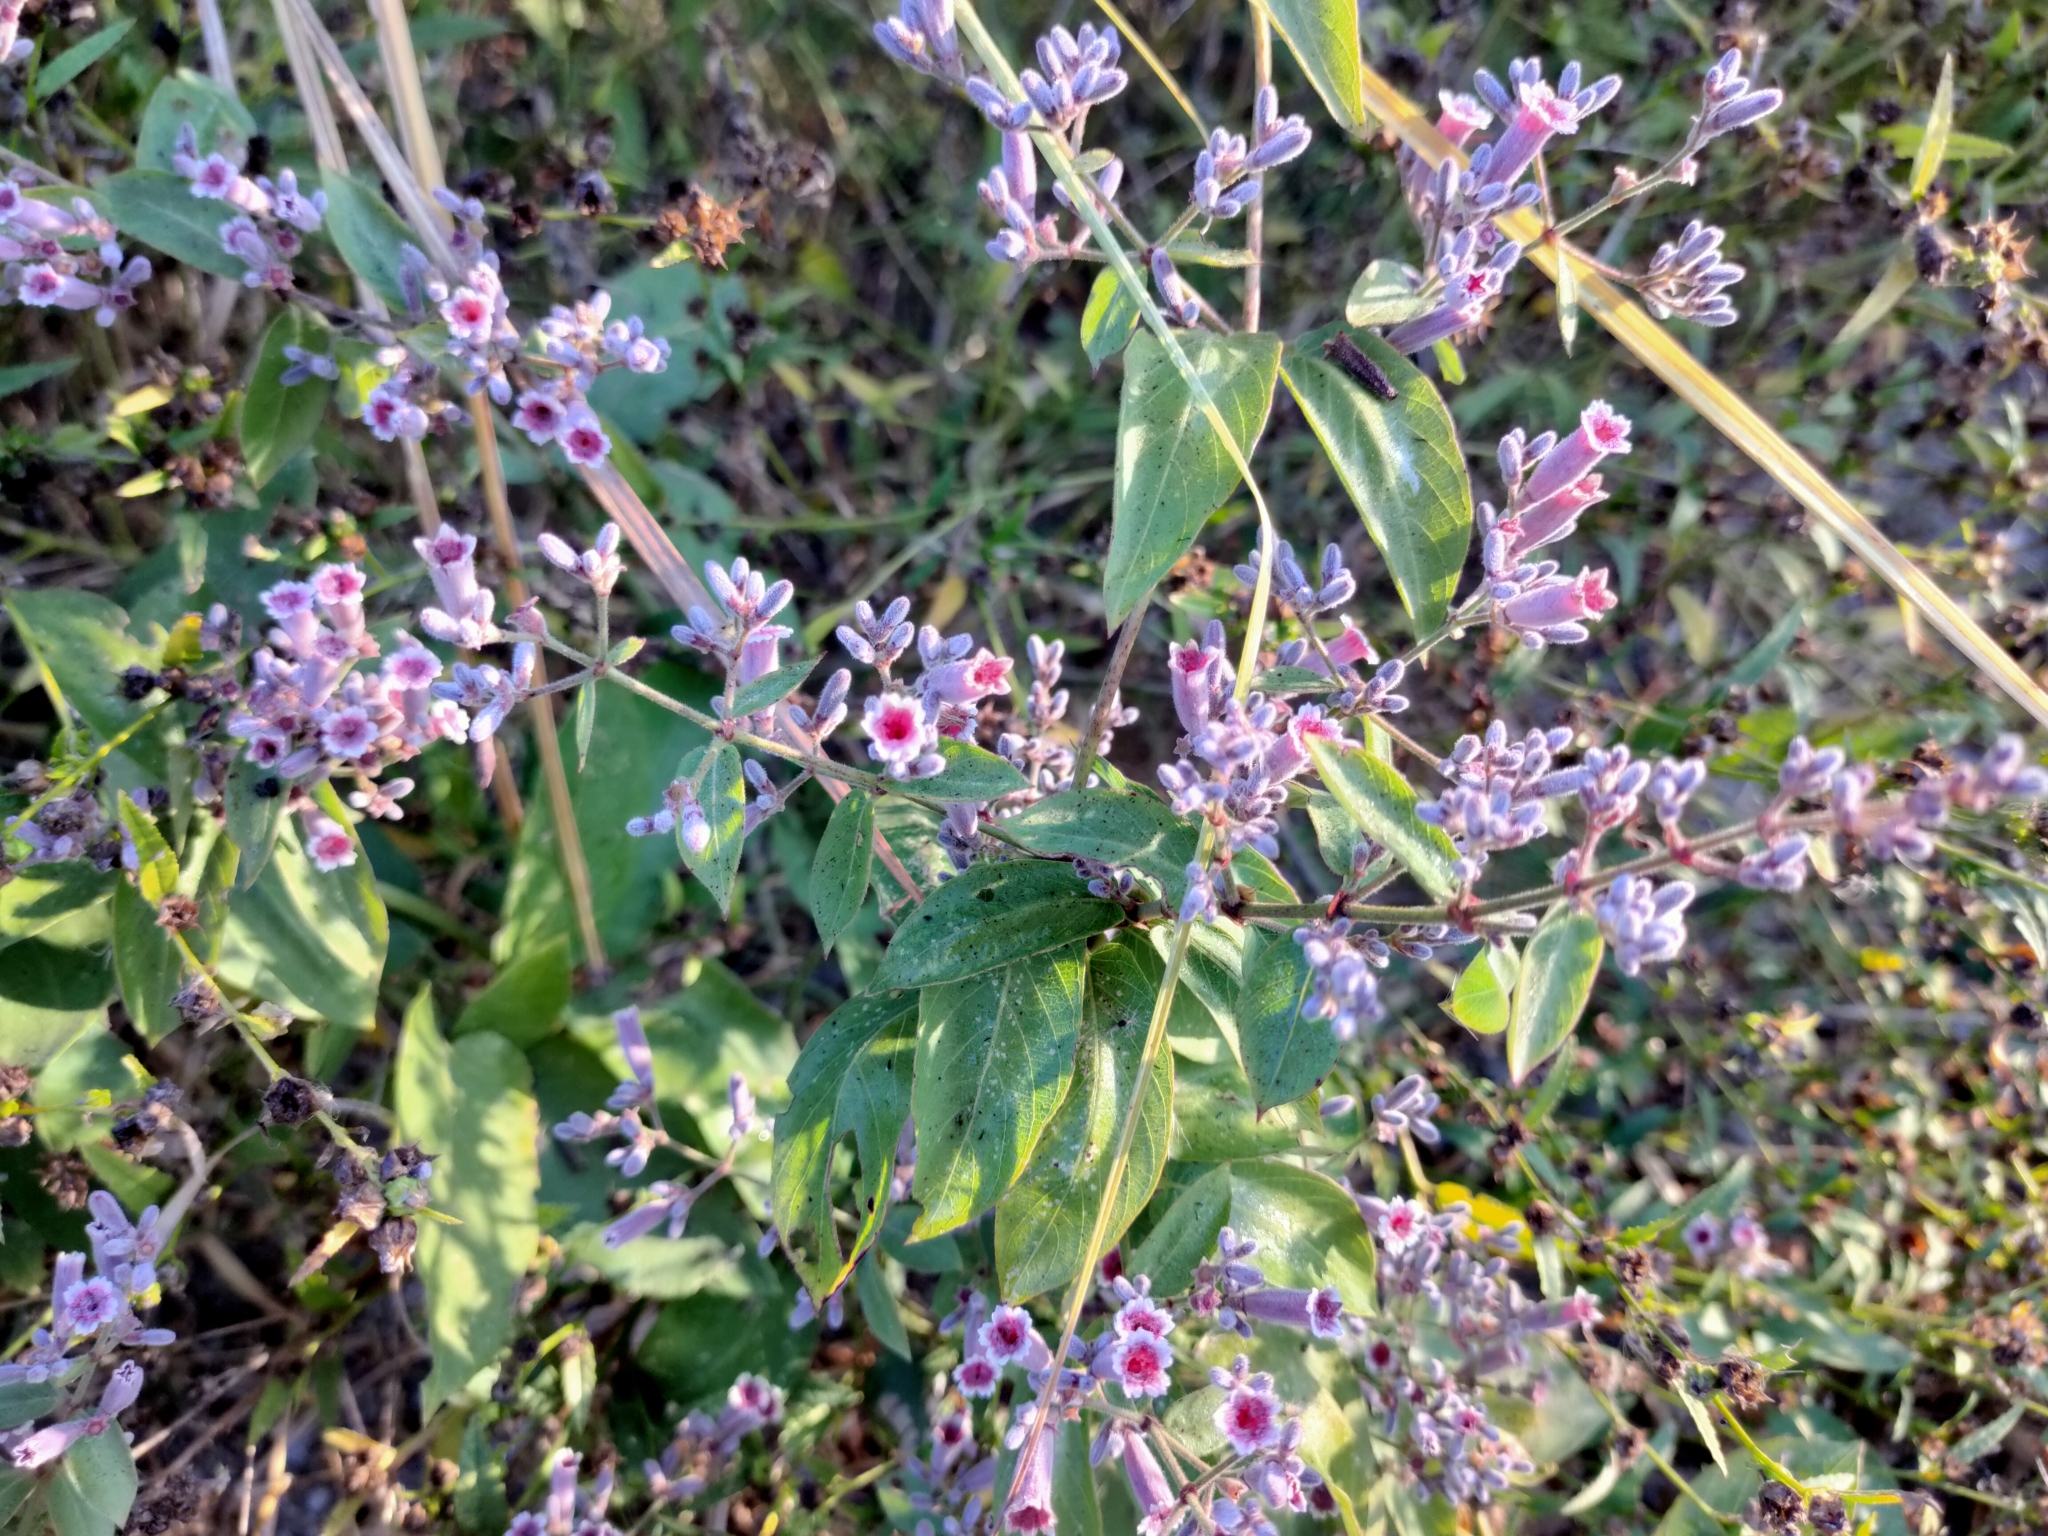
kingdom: Plantae
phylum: Tracheophyta
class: Magnoliopsida
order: Gentianales
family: Rubiaceae
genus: Paederia
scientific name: Paederia foetida
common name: Stinkvine
